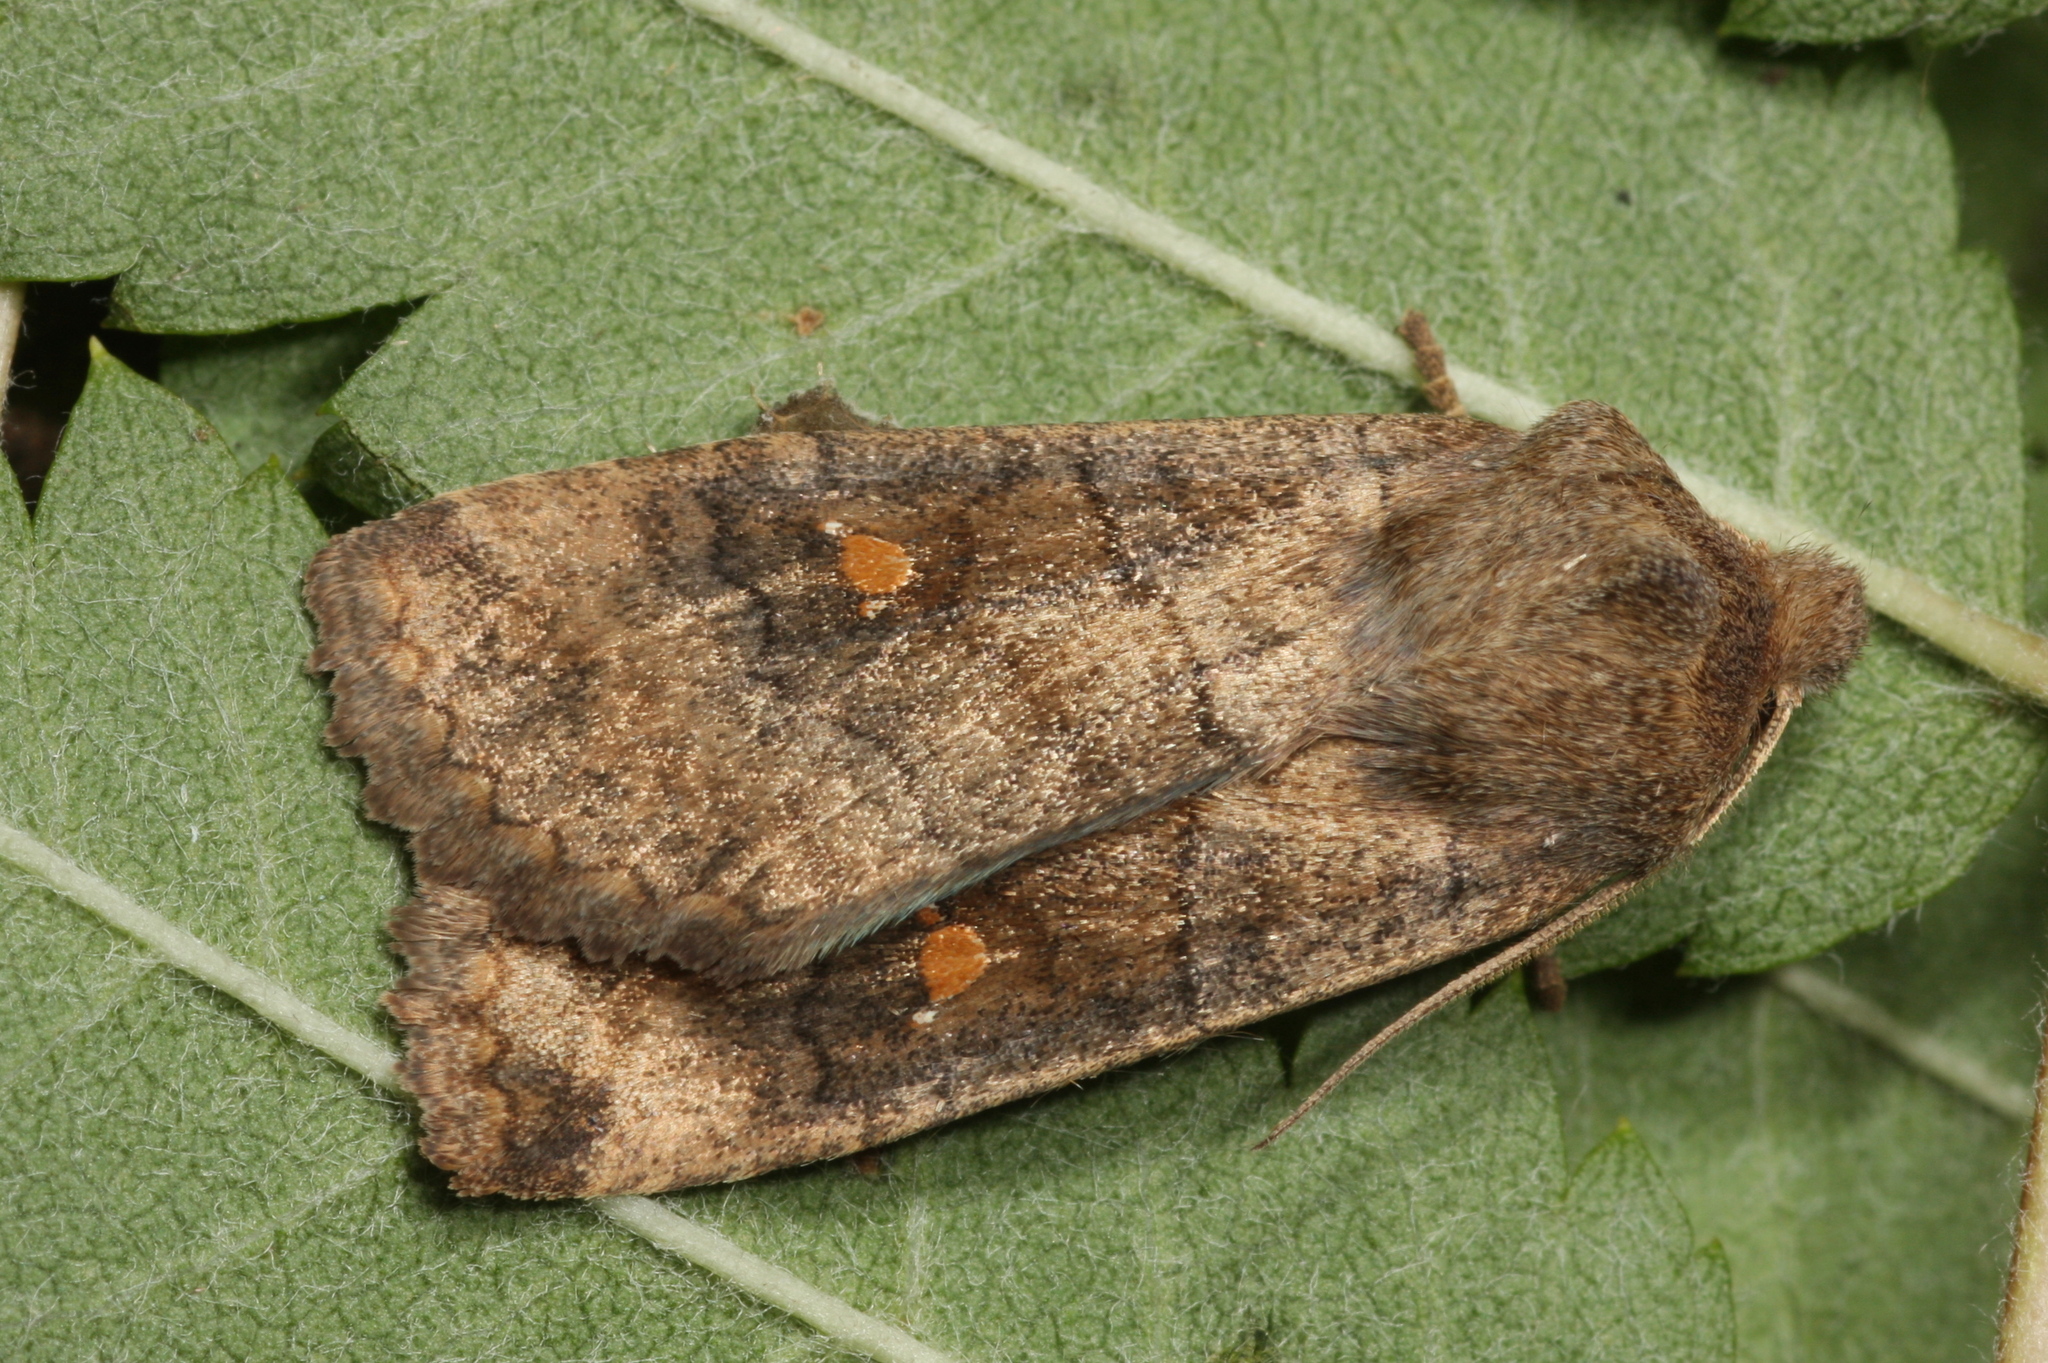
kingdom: Animalia
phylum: Arthropoda
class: Insecta
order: Lepidoptera
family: Noctuidae
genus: Eupsilia
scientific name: Eupsilia transversa
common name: Satellite
